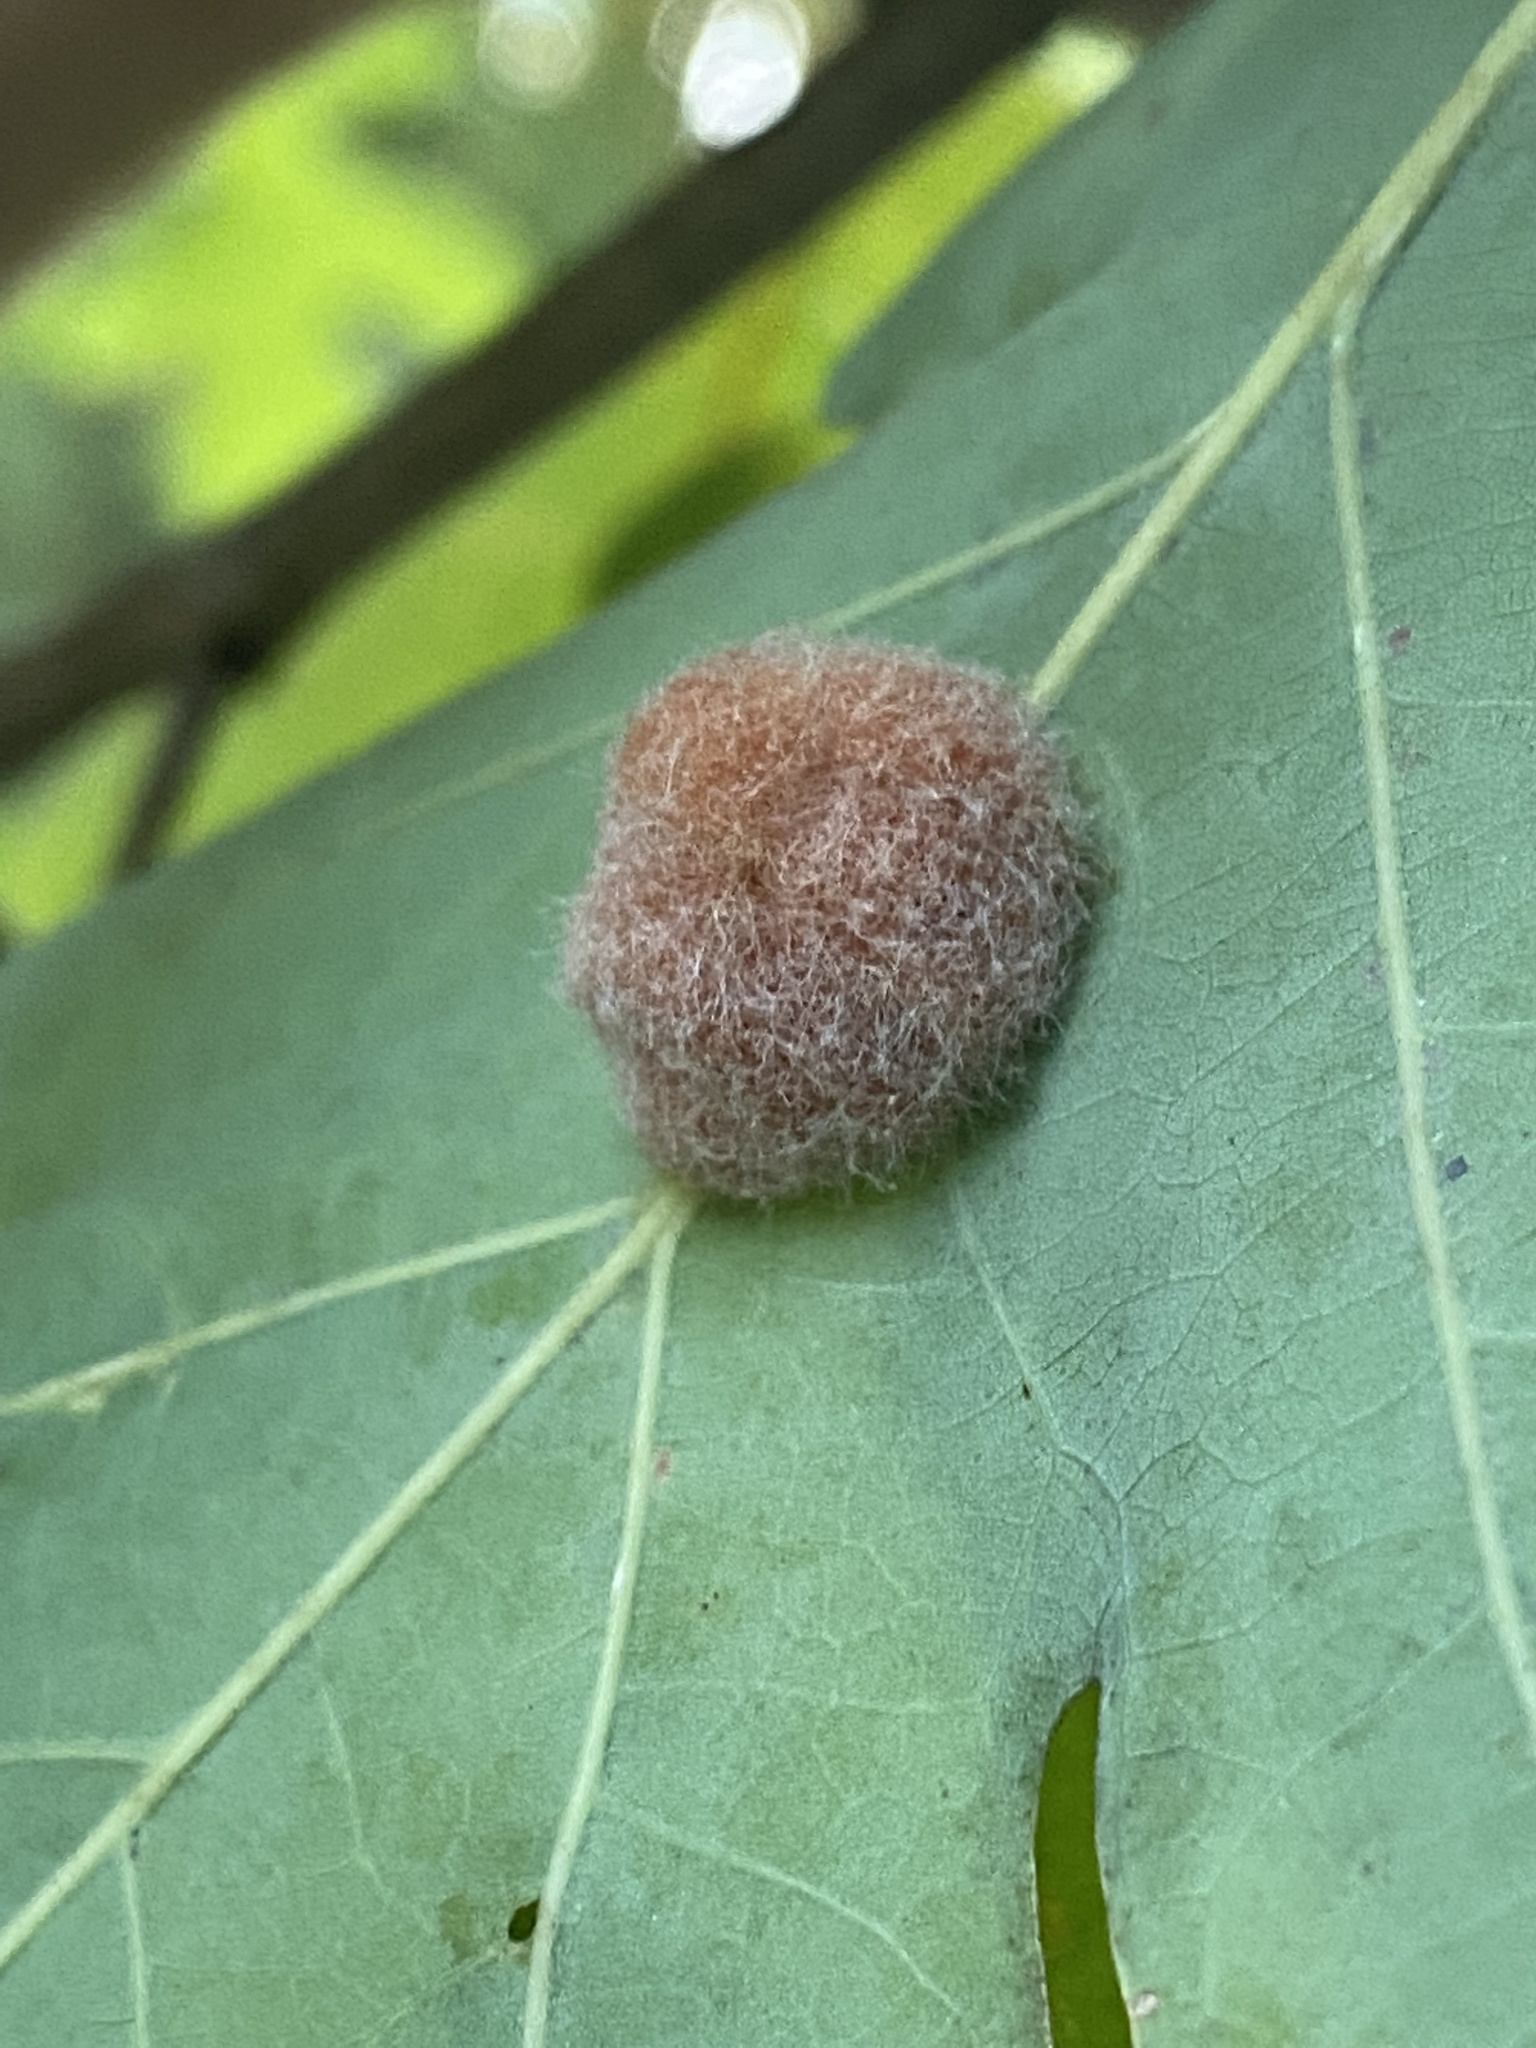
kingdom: Animalia
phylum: Arthropoda
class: Insecta
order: Hymenoptera
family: Cynipidae
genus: Andricus
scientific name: Andricus quercusflocci
